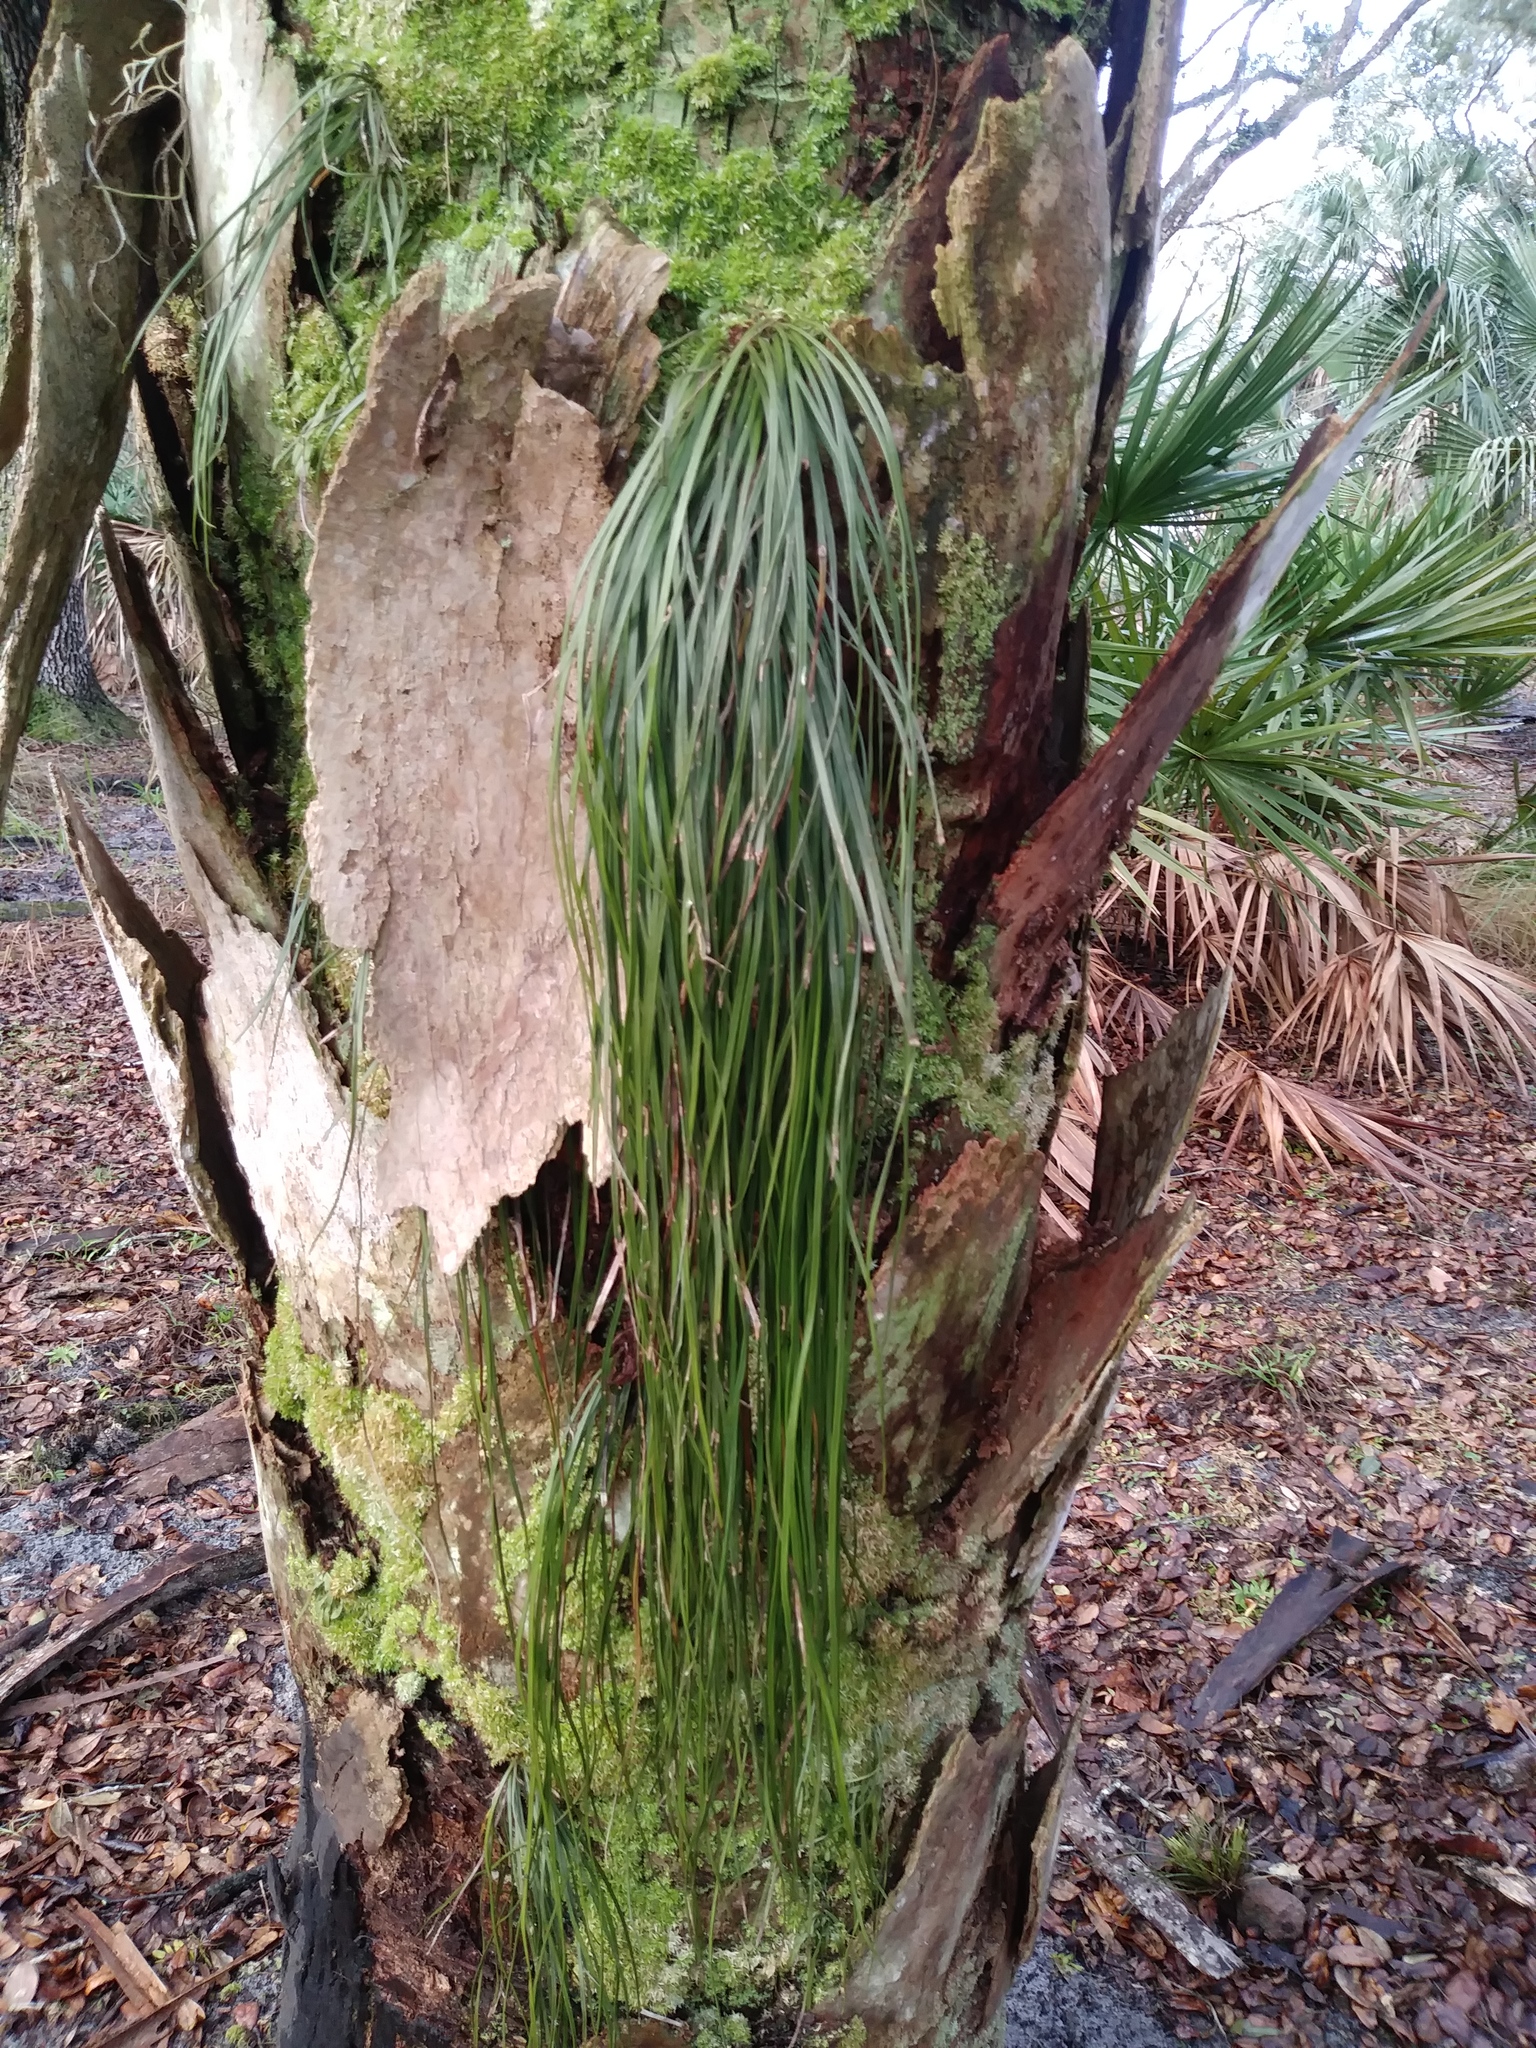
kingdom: Plantae
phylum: Tracheophyta
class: Polypodiopsida
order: Polypodiales
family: Pteridaceae
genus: Vittaria
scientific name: Vittaria lineata
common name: Shoestring fern
